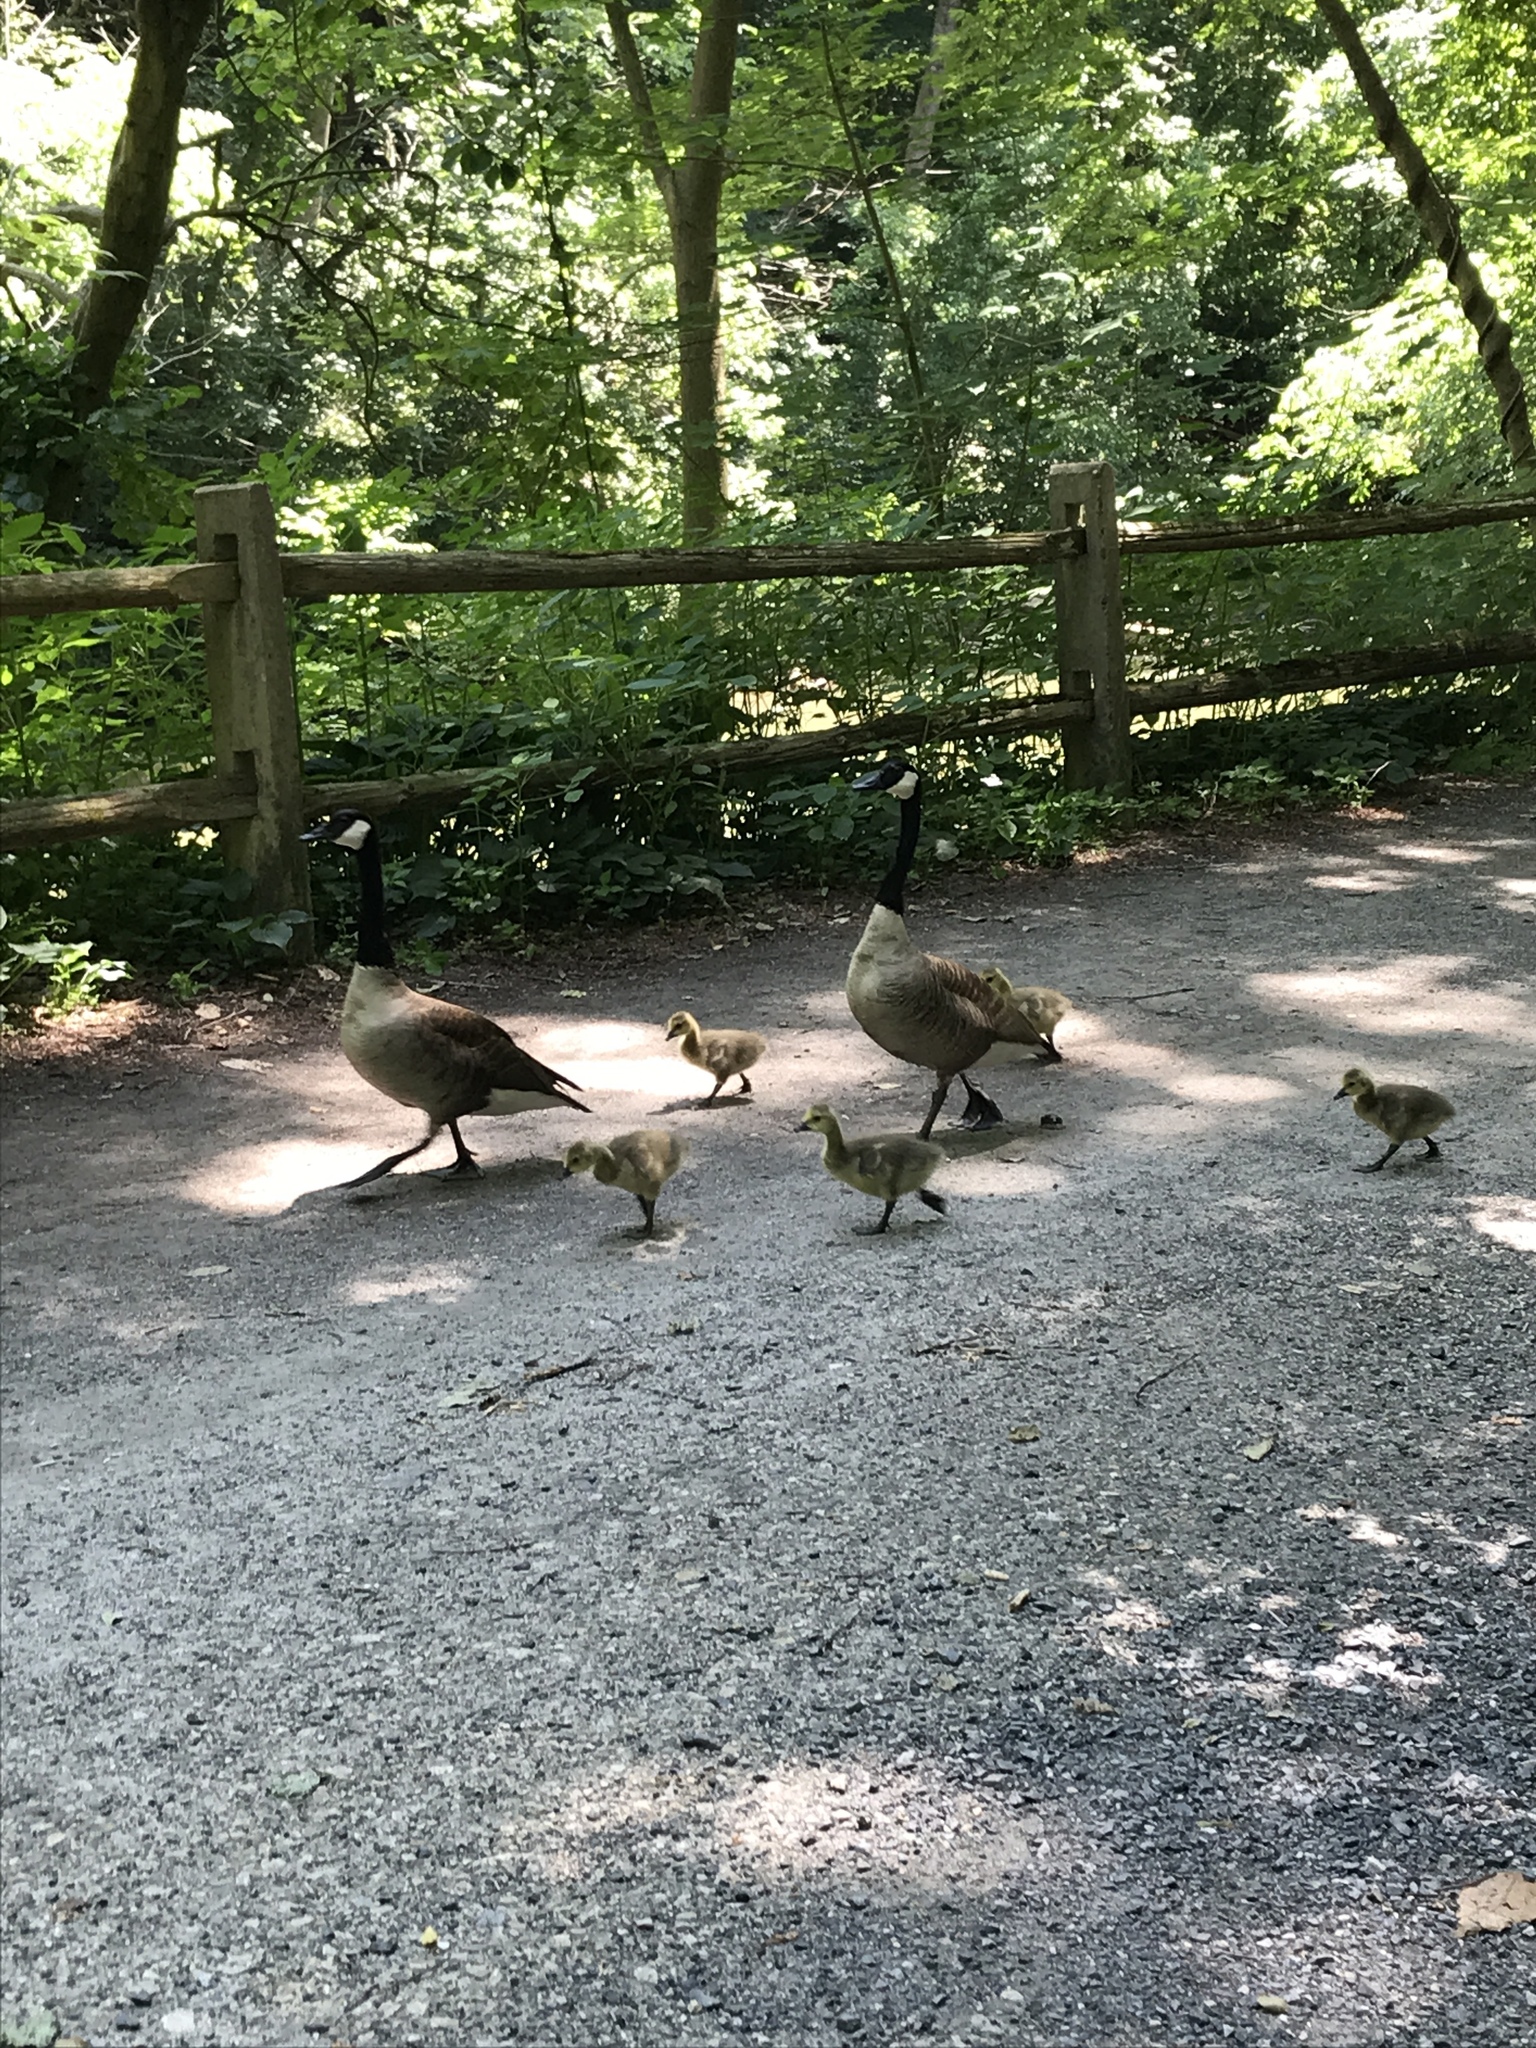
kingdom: Animalia
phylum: Chordata
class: Aves
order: Anseriformes
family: Anatidae
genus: Branta
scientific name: Branta canadensis
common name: Canada goose
